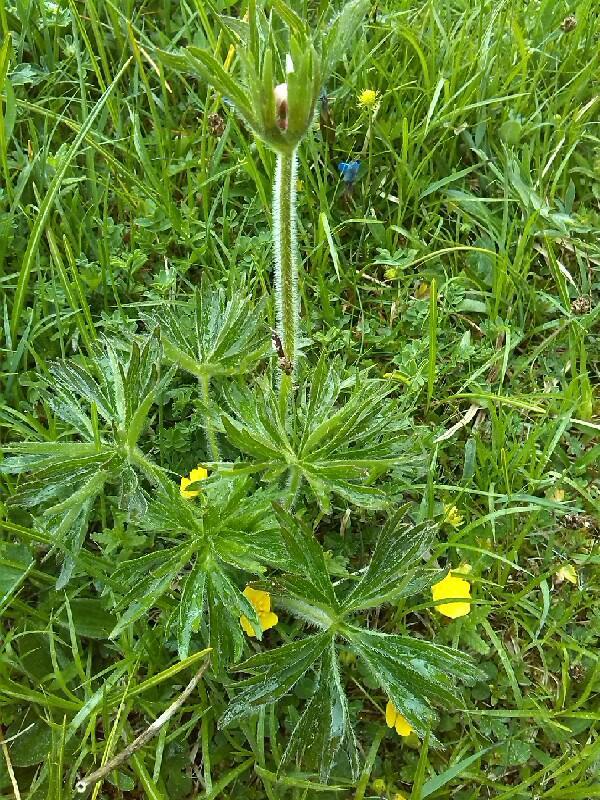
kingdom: Plantae
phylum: Tracheophyta
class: Magnoliopsida
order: Ranunculales
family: Ranunculaceae
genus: Anemonastrum
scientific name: Anemonastrum narcissiflorum
